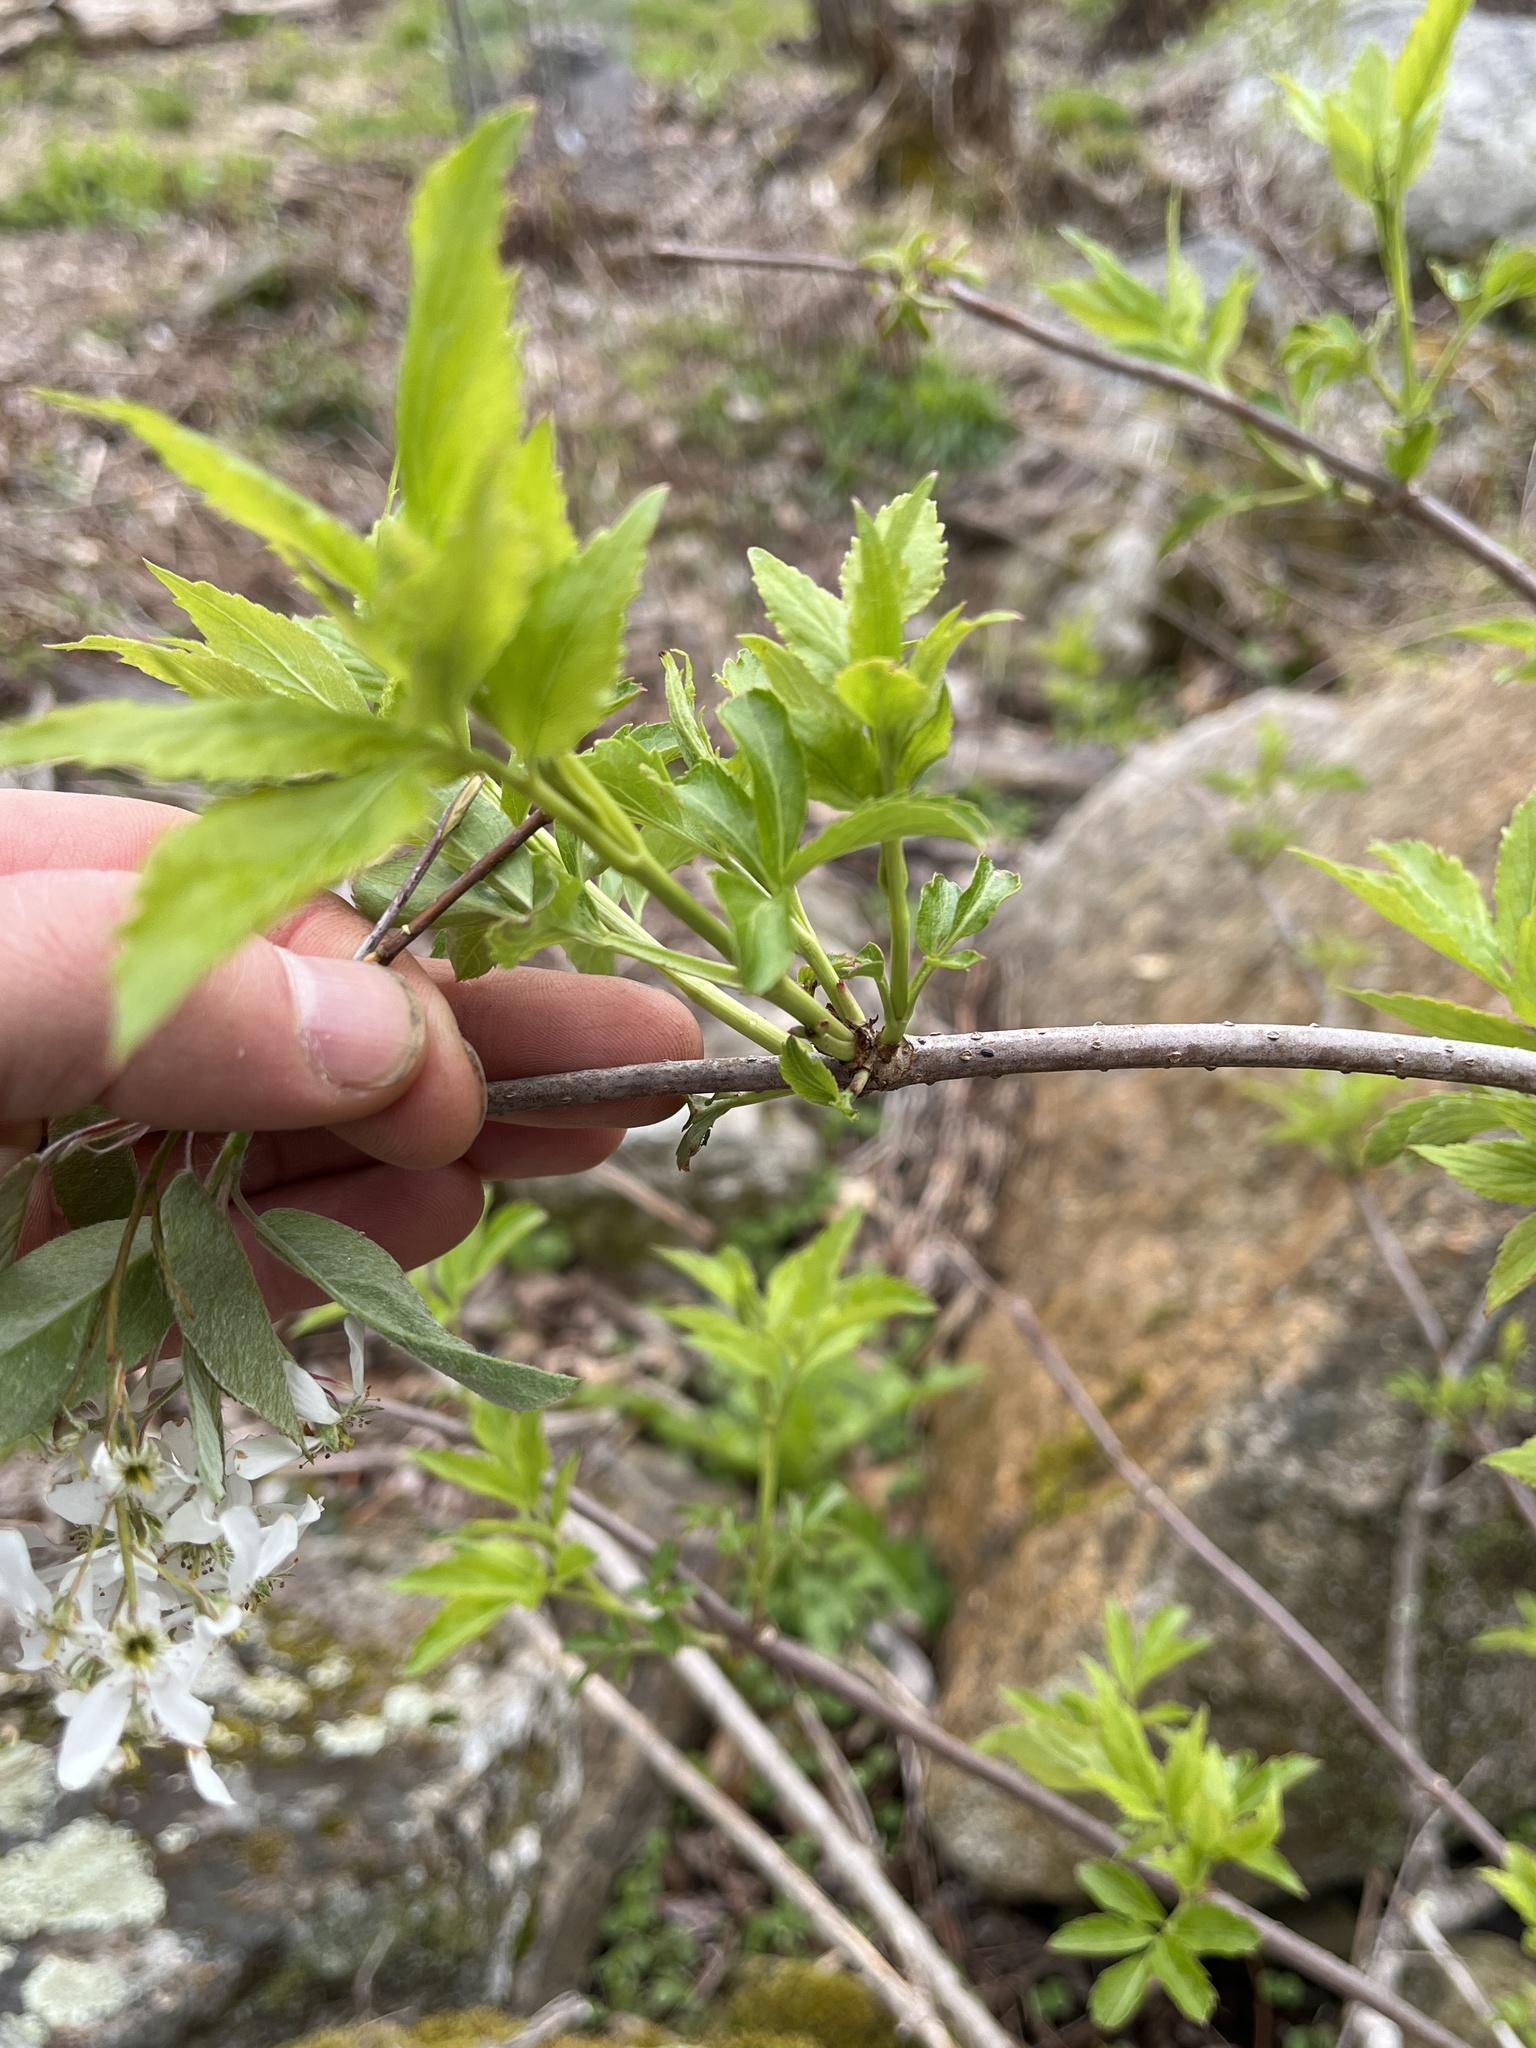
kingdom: Plantae
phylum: Tracheophyta
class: Magnoliopsida
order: Dipsacales
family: Viburnaceae
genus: Sambucus
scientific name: Sambucus canadensis
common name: American elder
